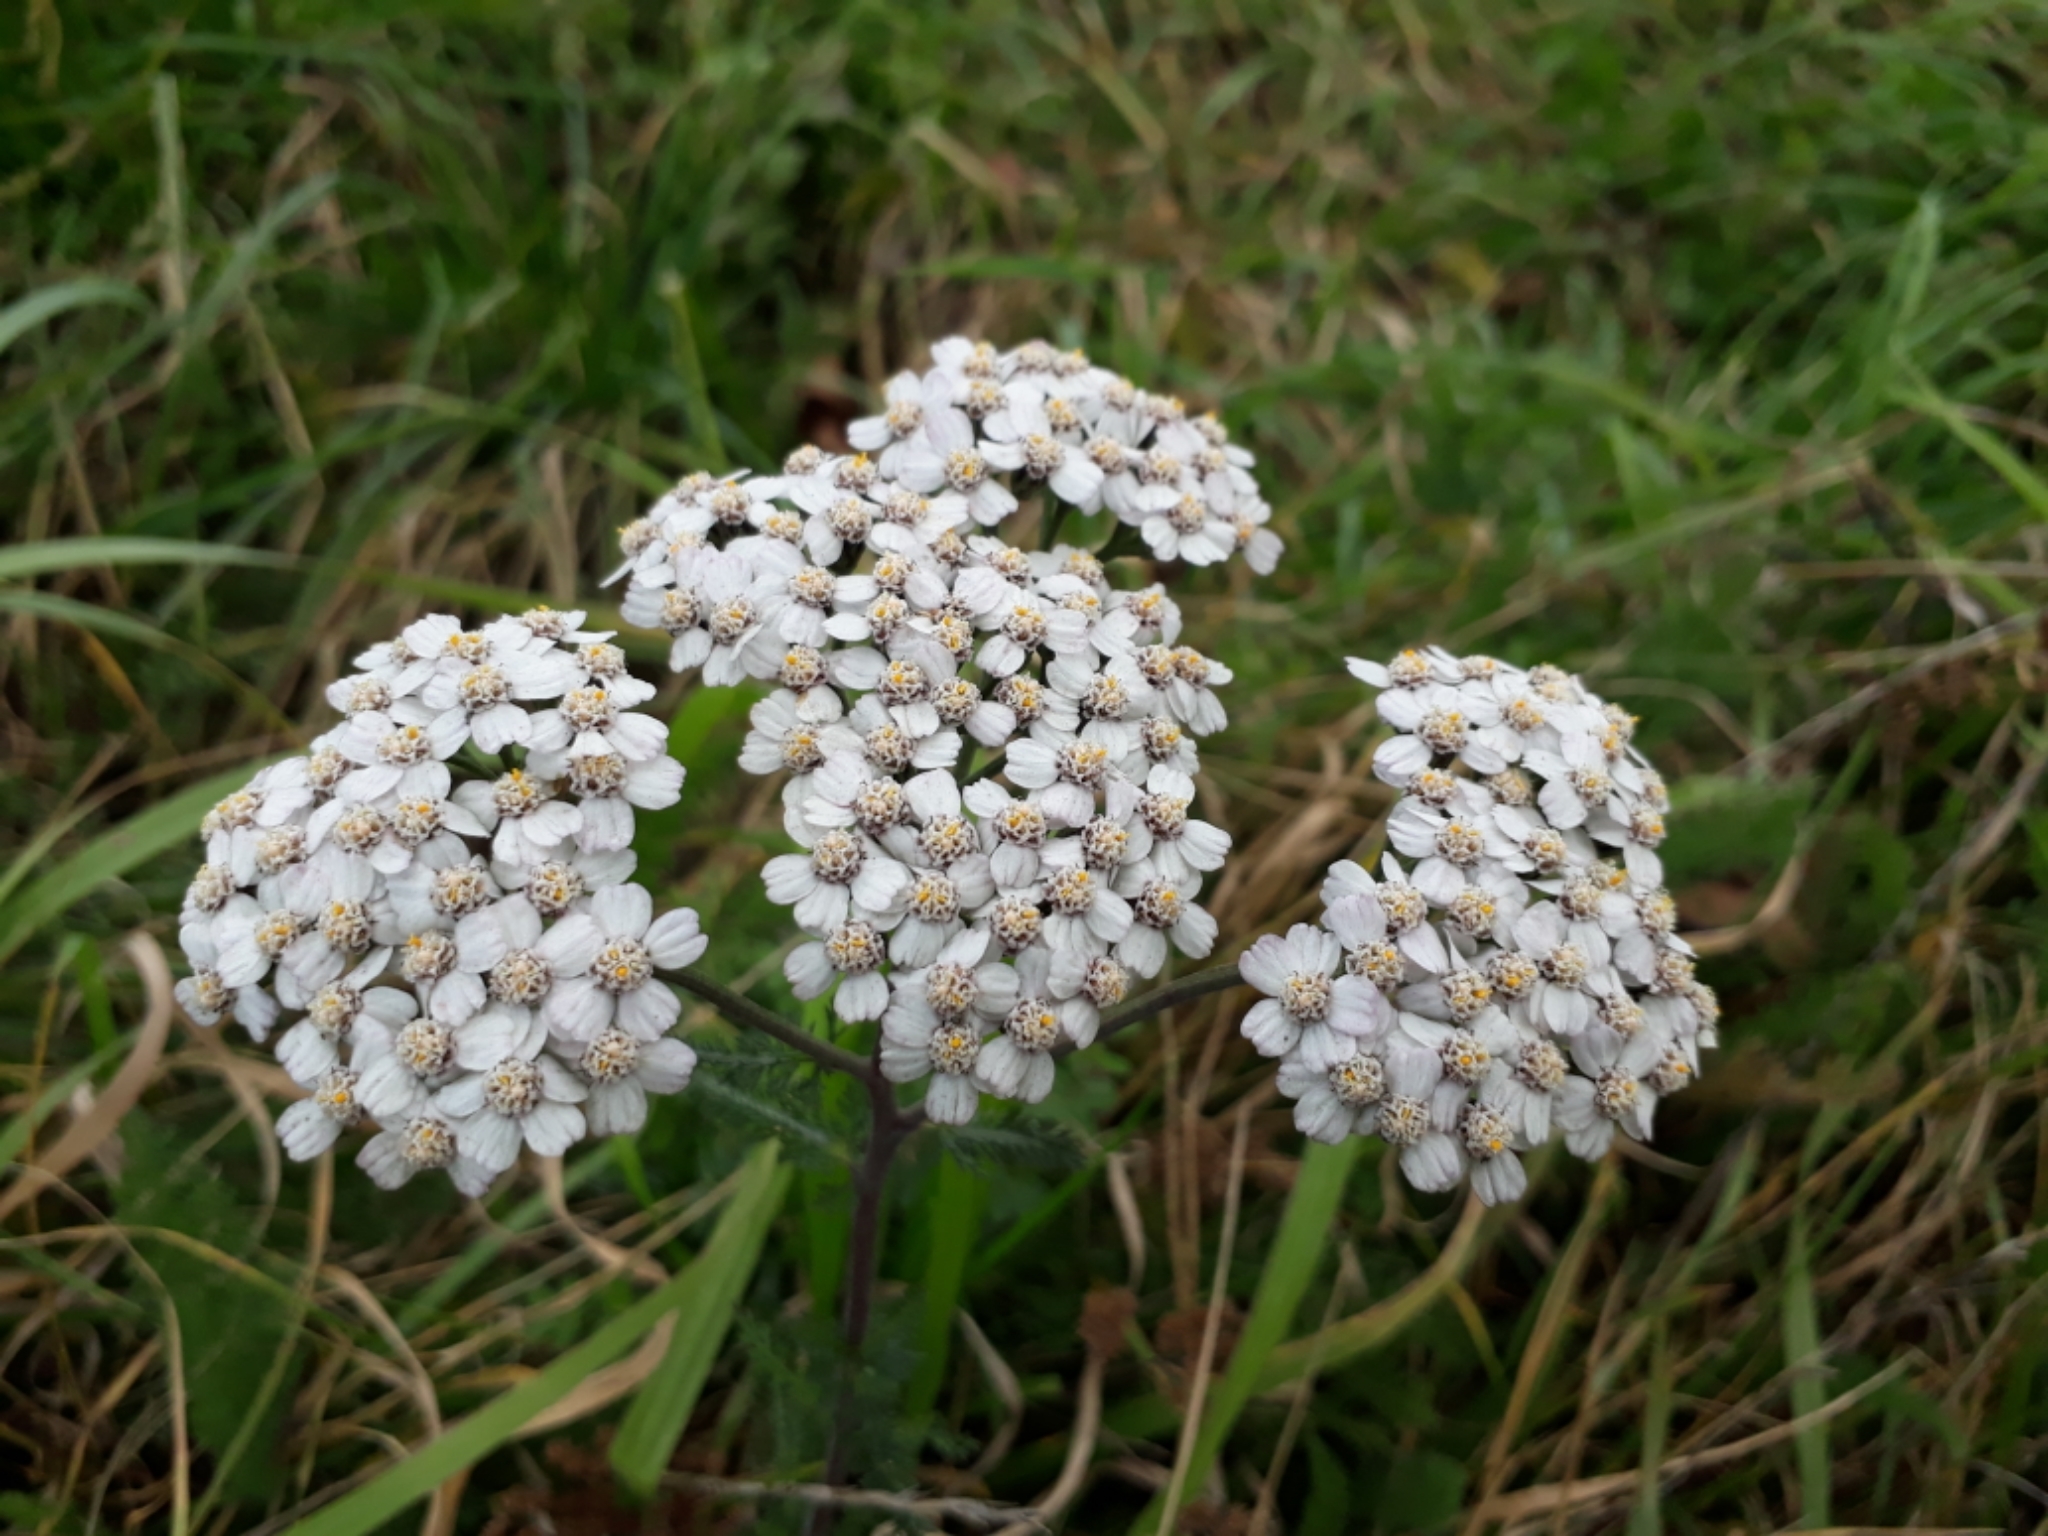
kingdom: Plantae
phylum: Tracheophyta
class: Magnoliopsida
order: Asterales
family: Asteraceae
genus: Achillea
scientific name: Achillea millefolium
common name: Yarrow
